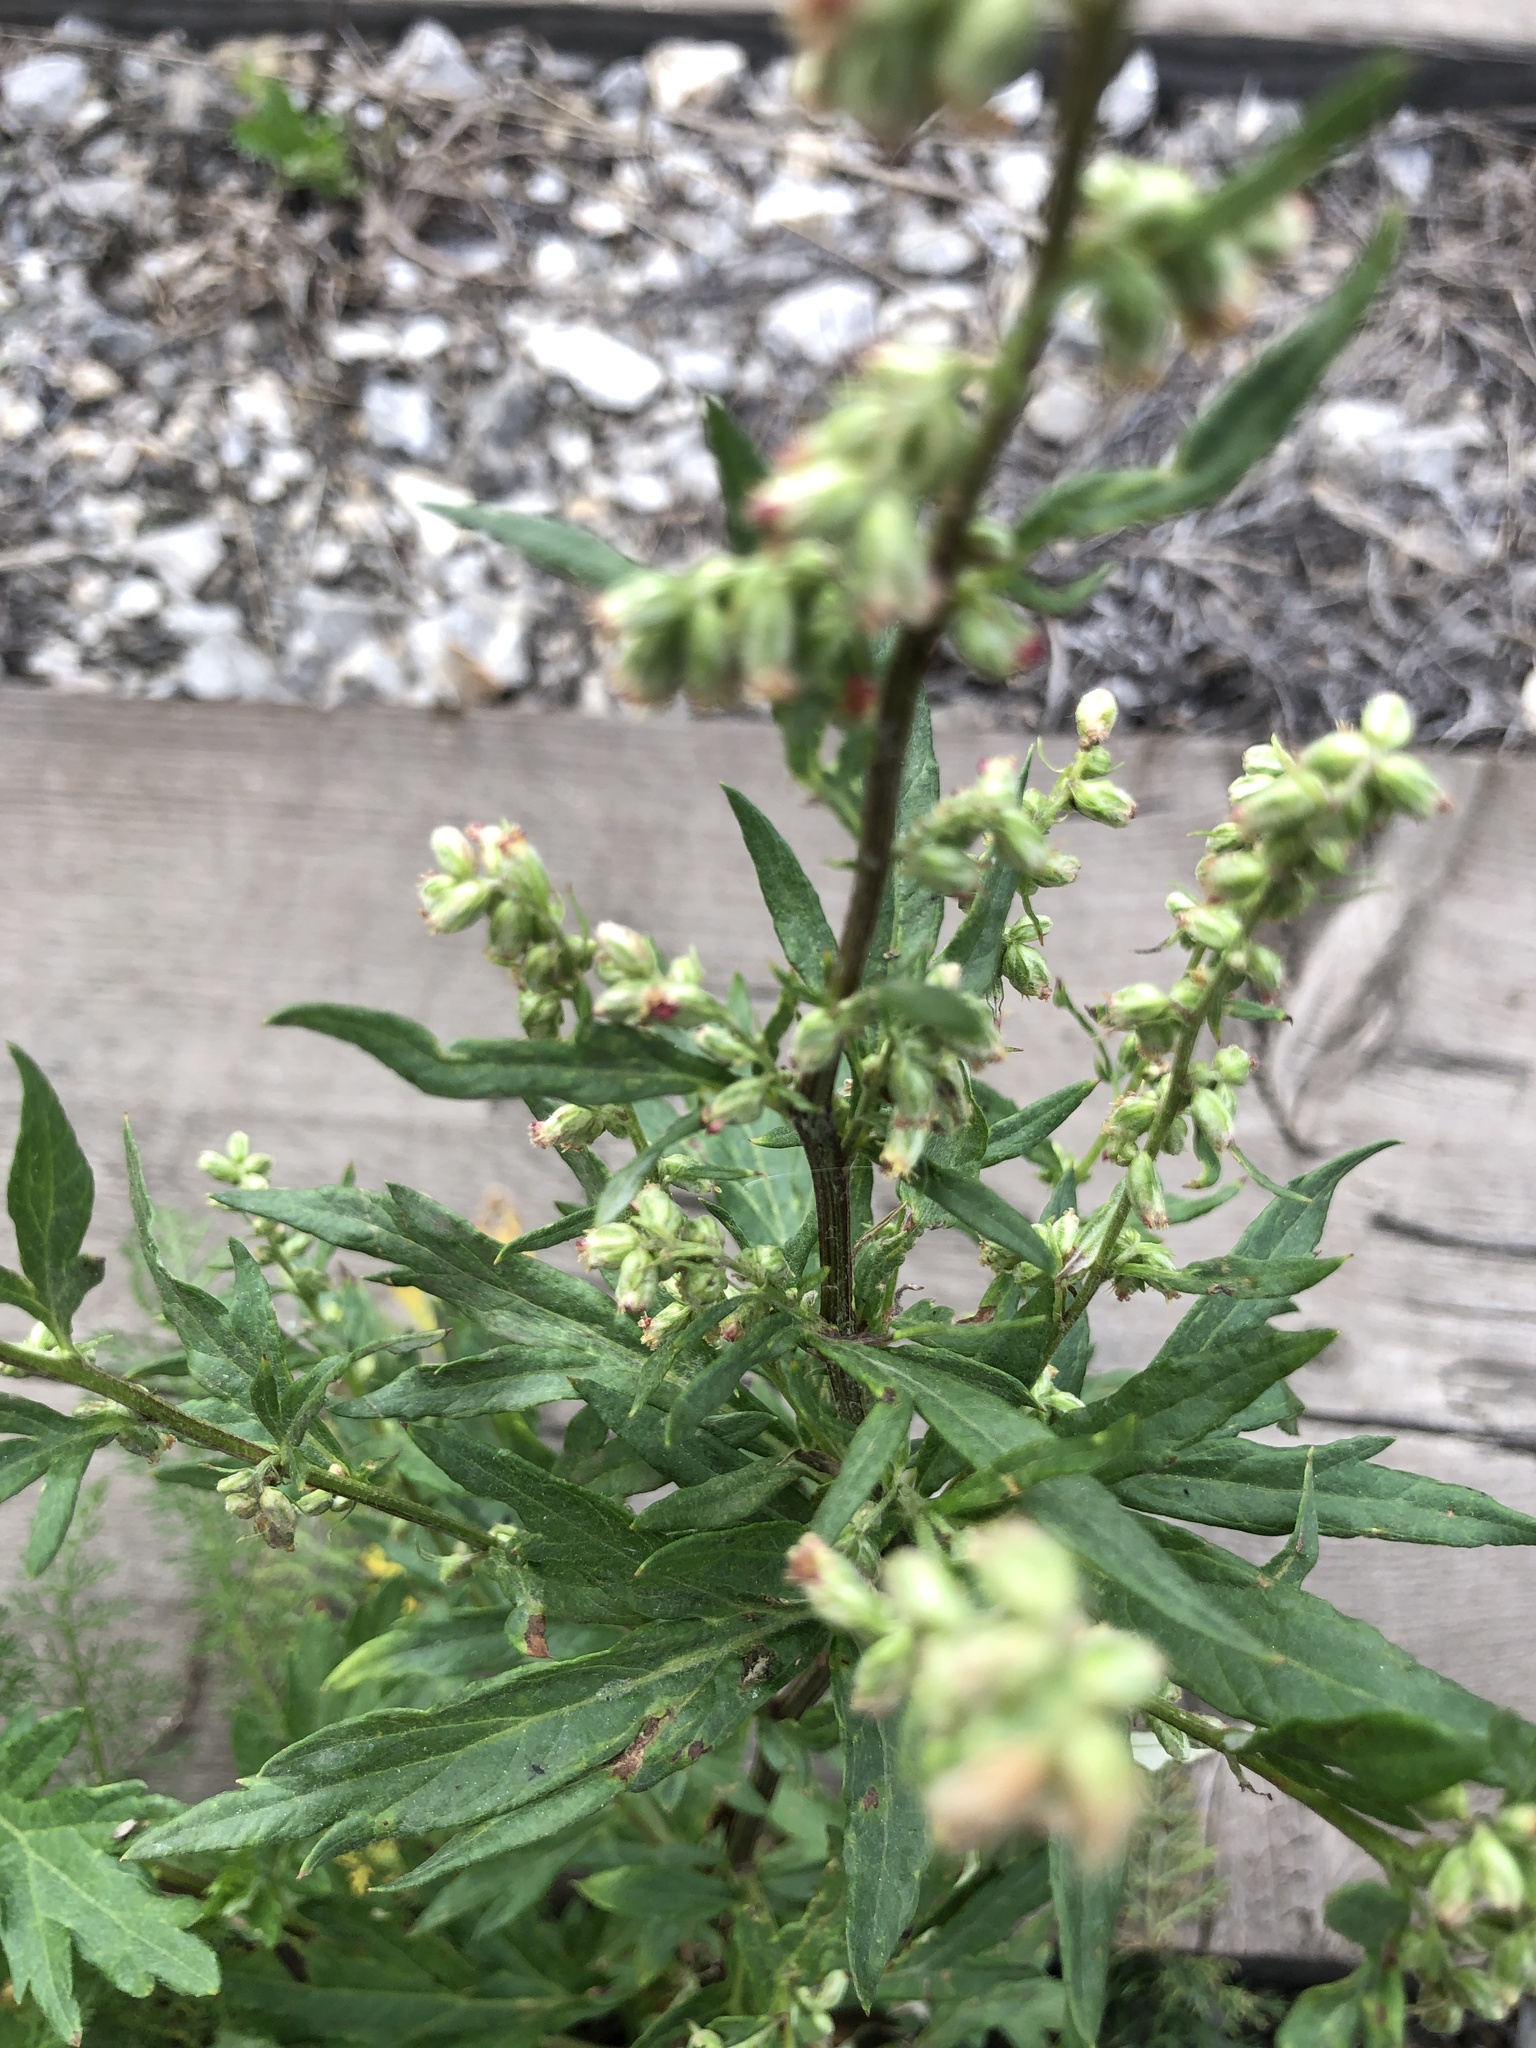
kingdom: Plantae
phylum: Tracheophyta
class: Magnoliopsida
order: Asterales
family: Asteraceae
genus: Artemisia
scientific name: Artemisia vulgaris
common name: Mugwort
